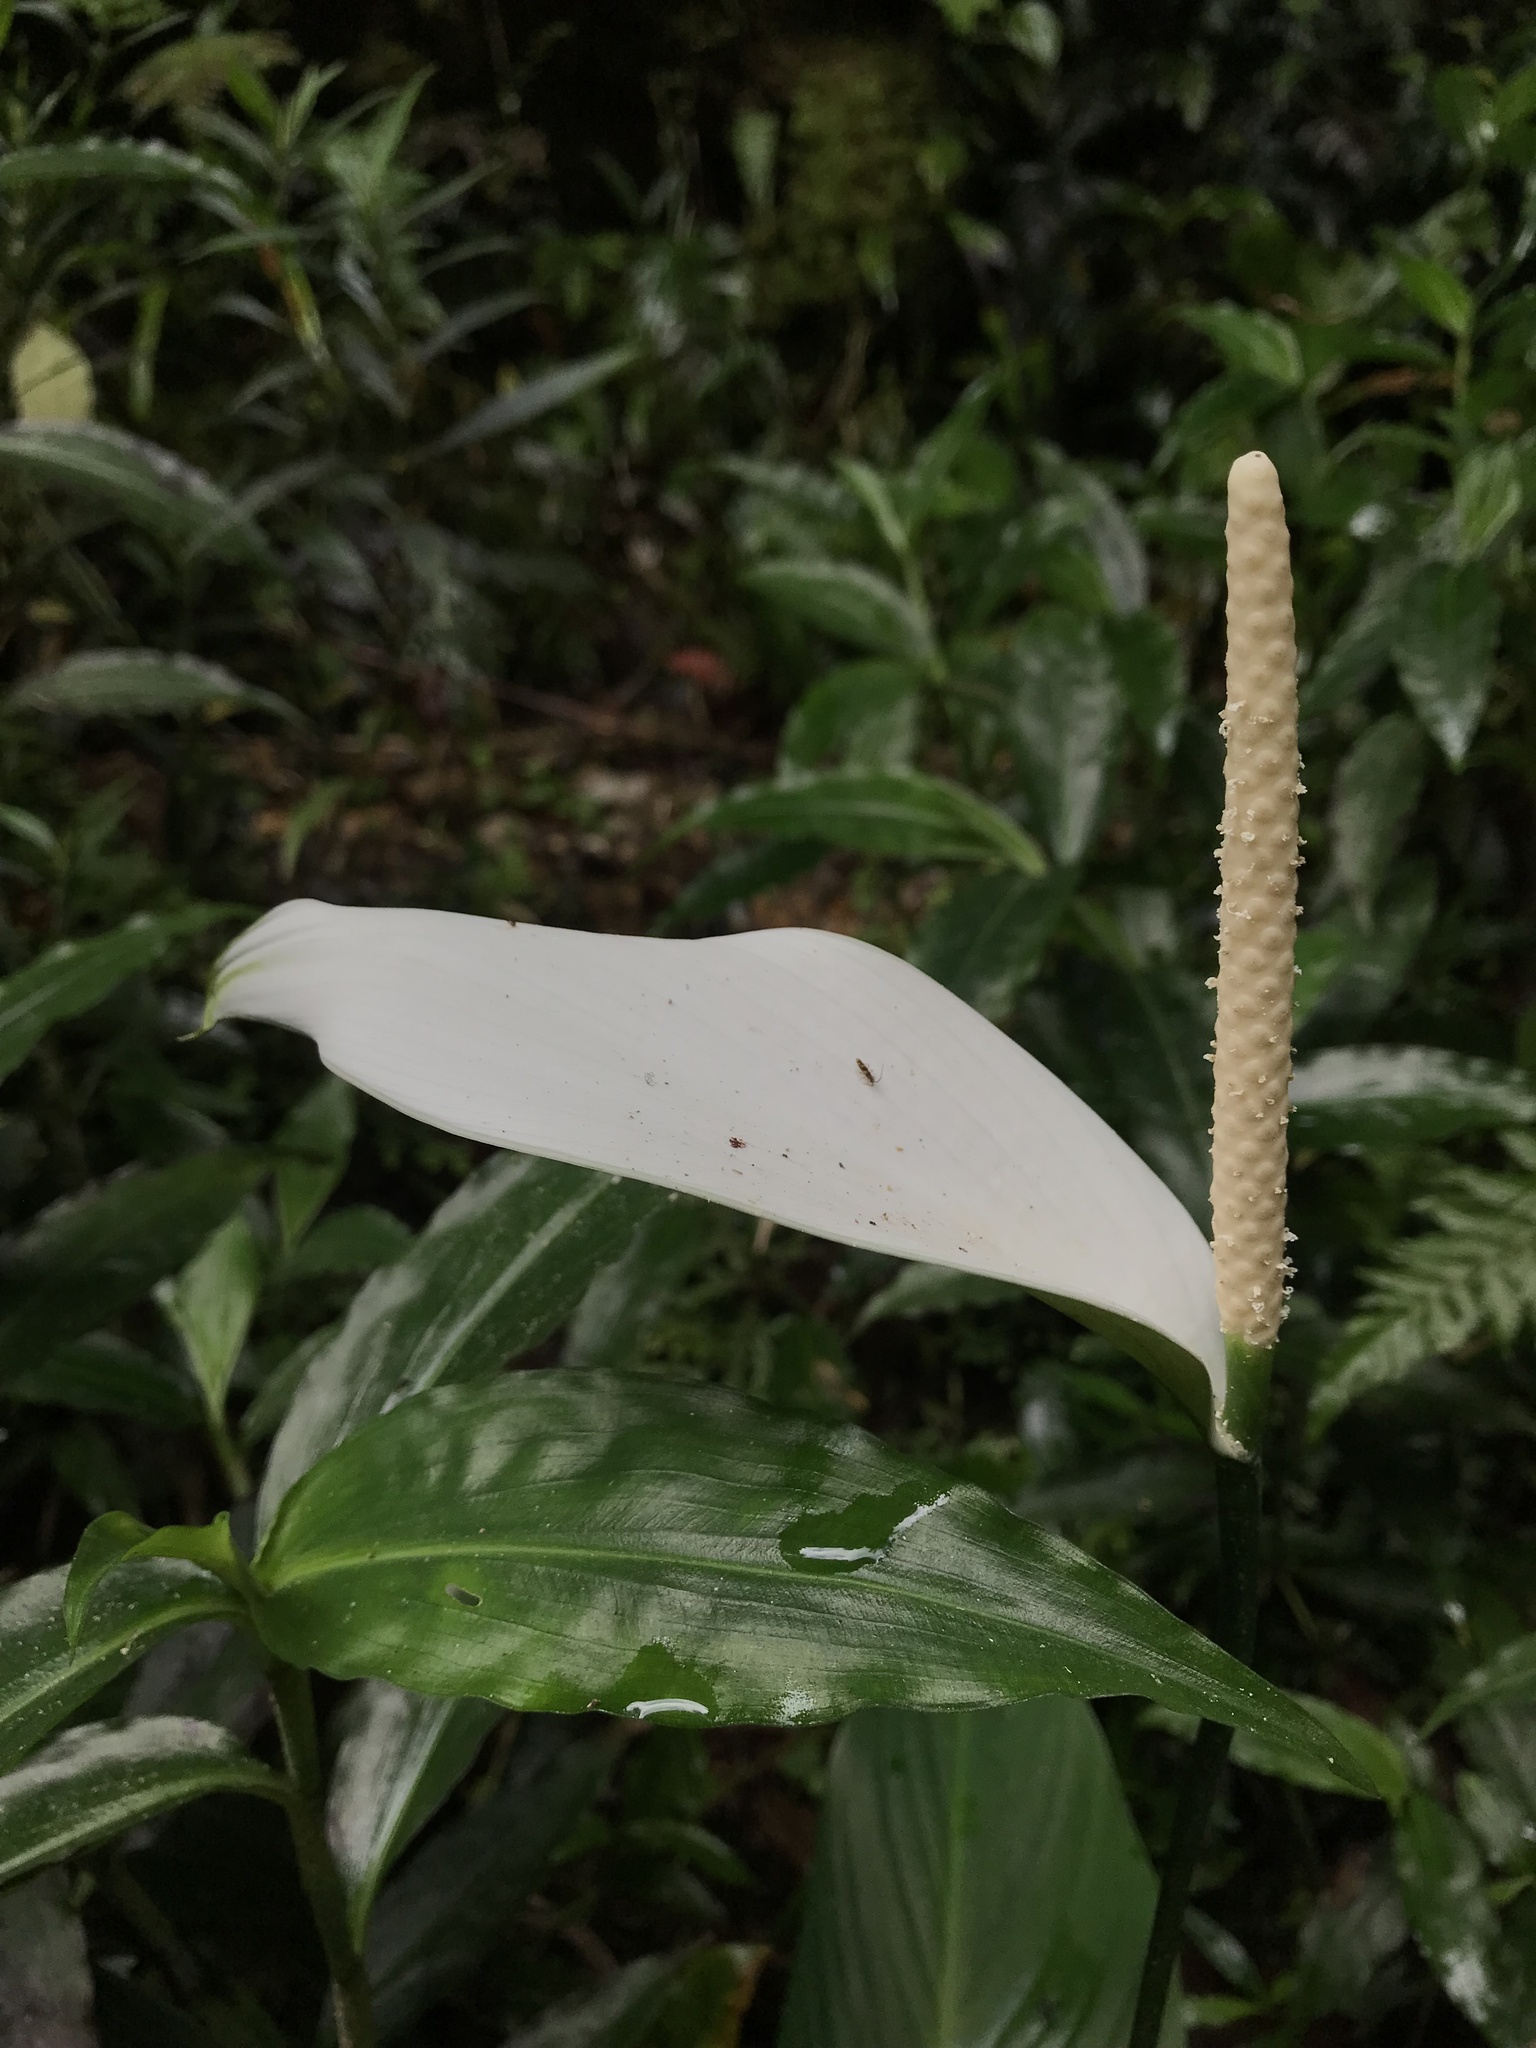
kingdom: Plantae
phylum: Tracheophyta
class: Liliopsida
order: Alismatales
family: Araceae
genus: Spathiphyllum
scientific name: Spathiphyllum cannifolium
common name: Spatheflower
